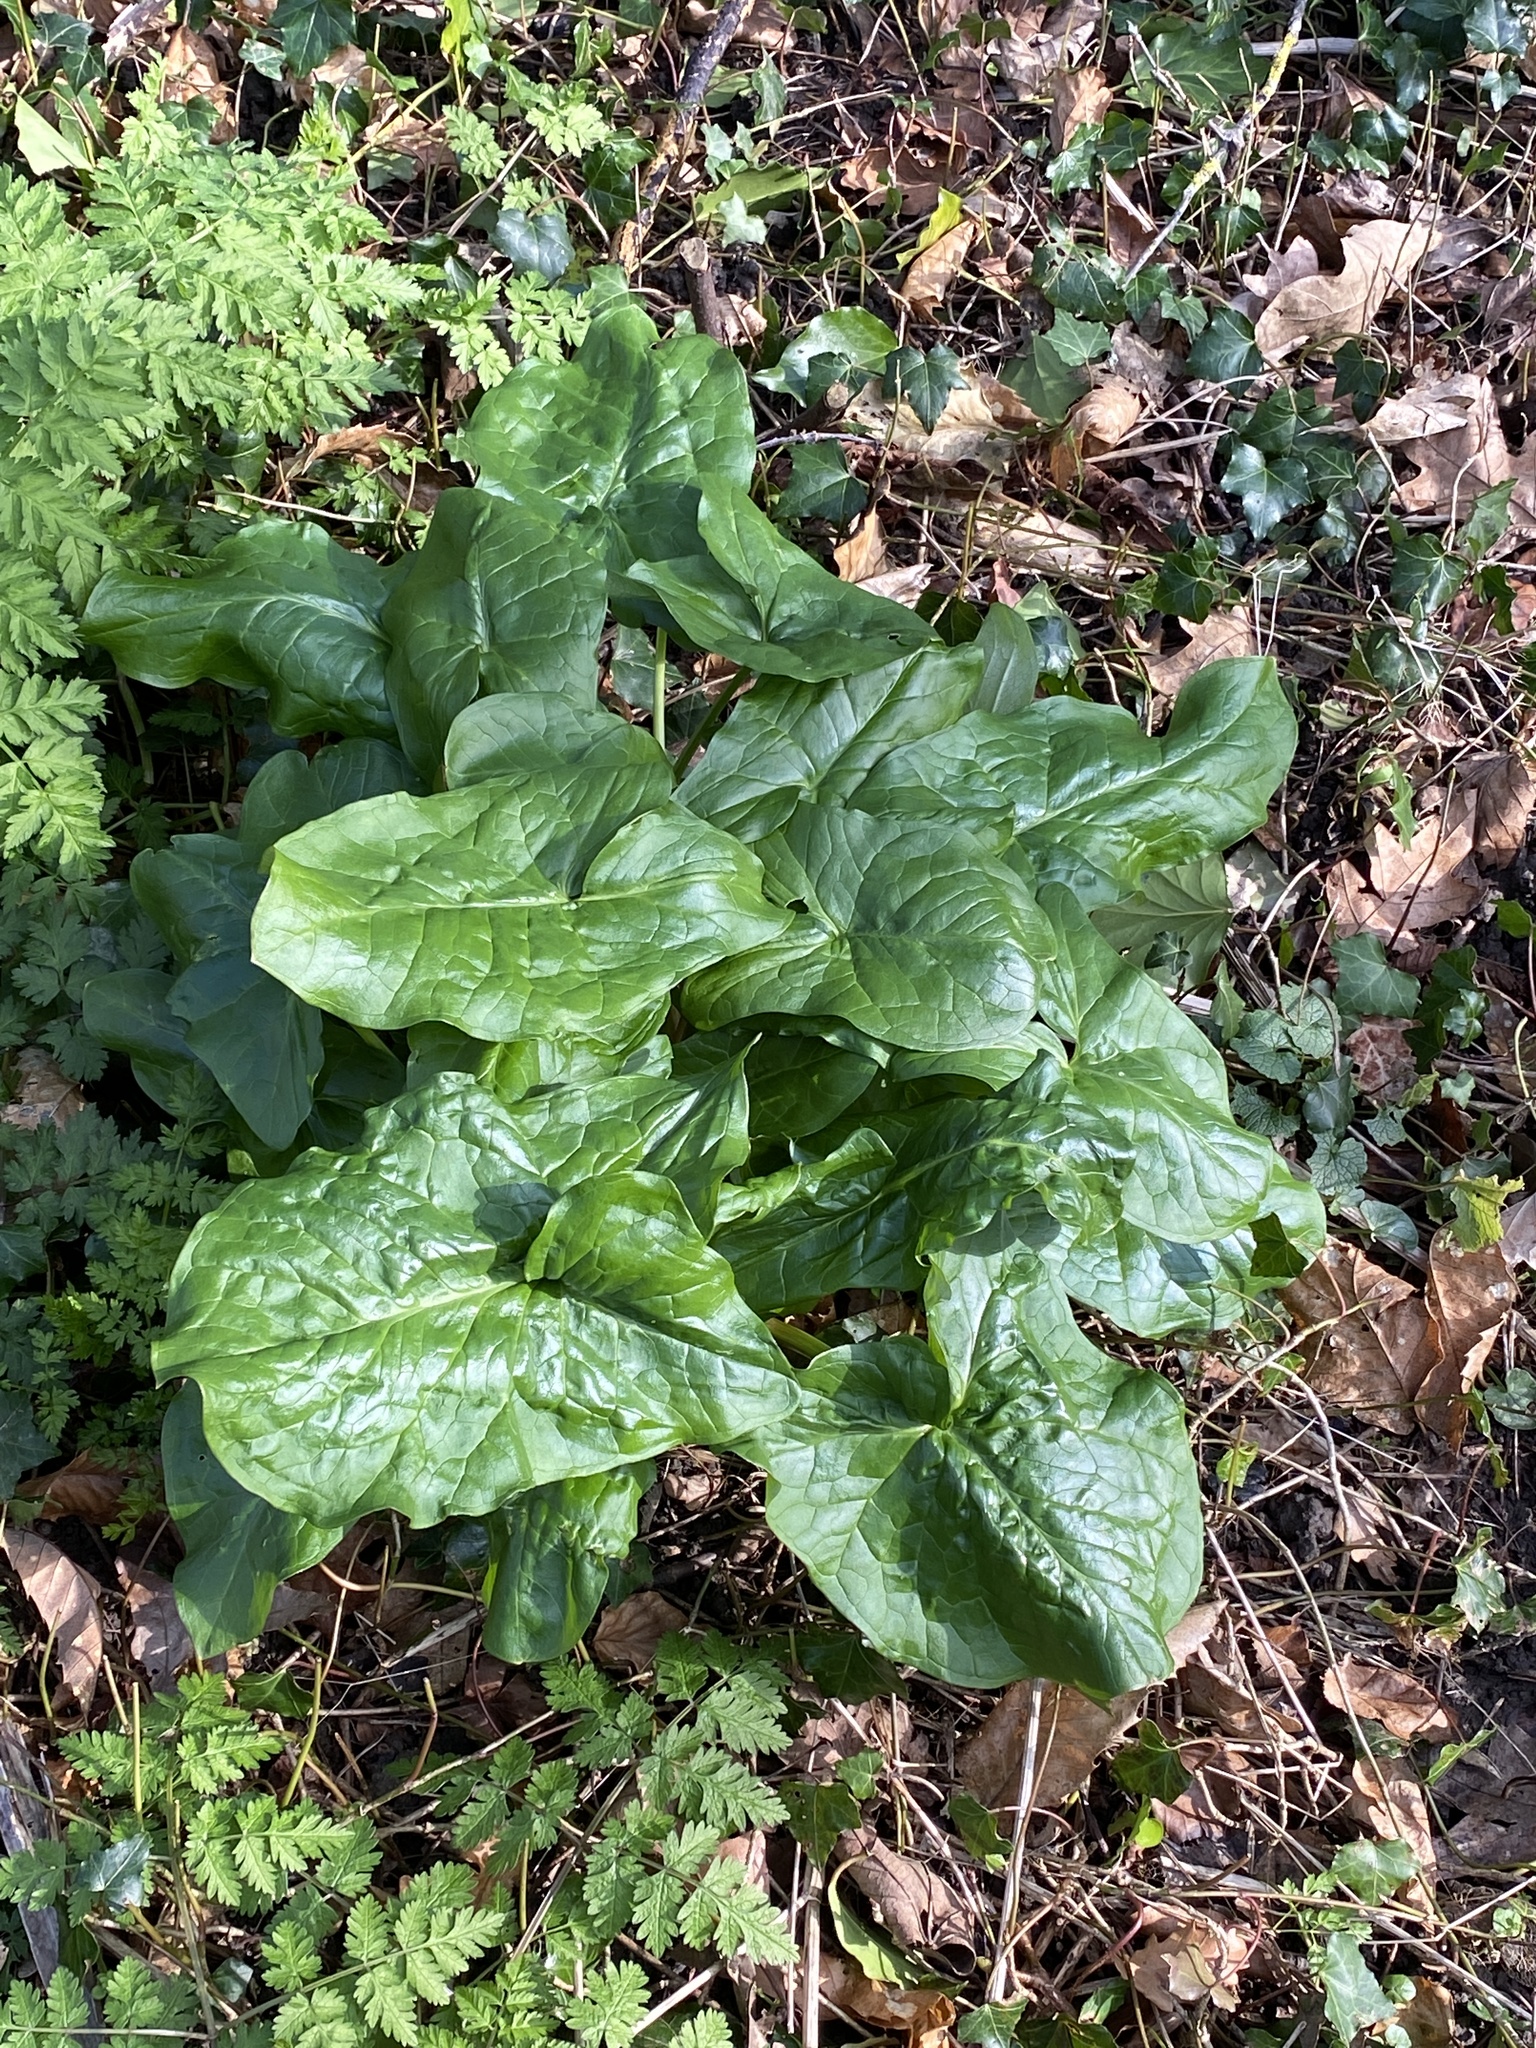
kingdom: Plantae
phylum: Tracheophyta
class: Liliopsida
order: Alismatales
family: Araceae
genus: Arum
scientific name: Arum maculatum
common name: Lords-and-ladies
